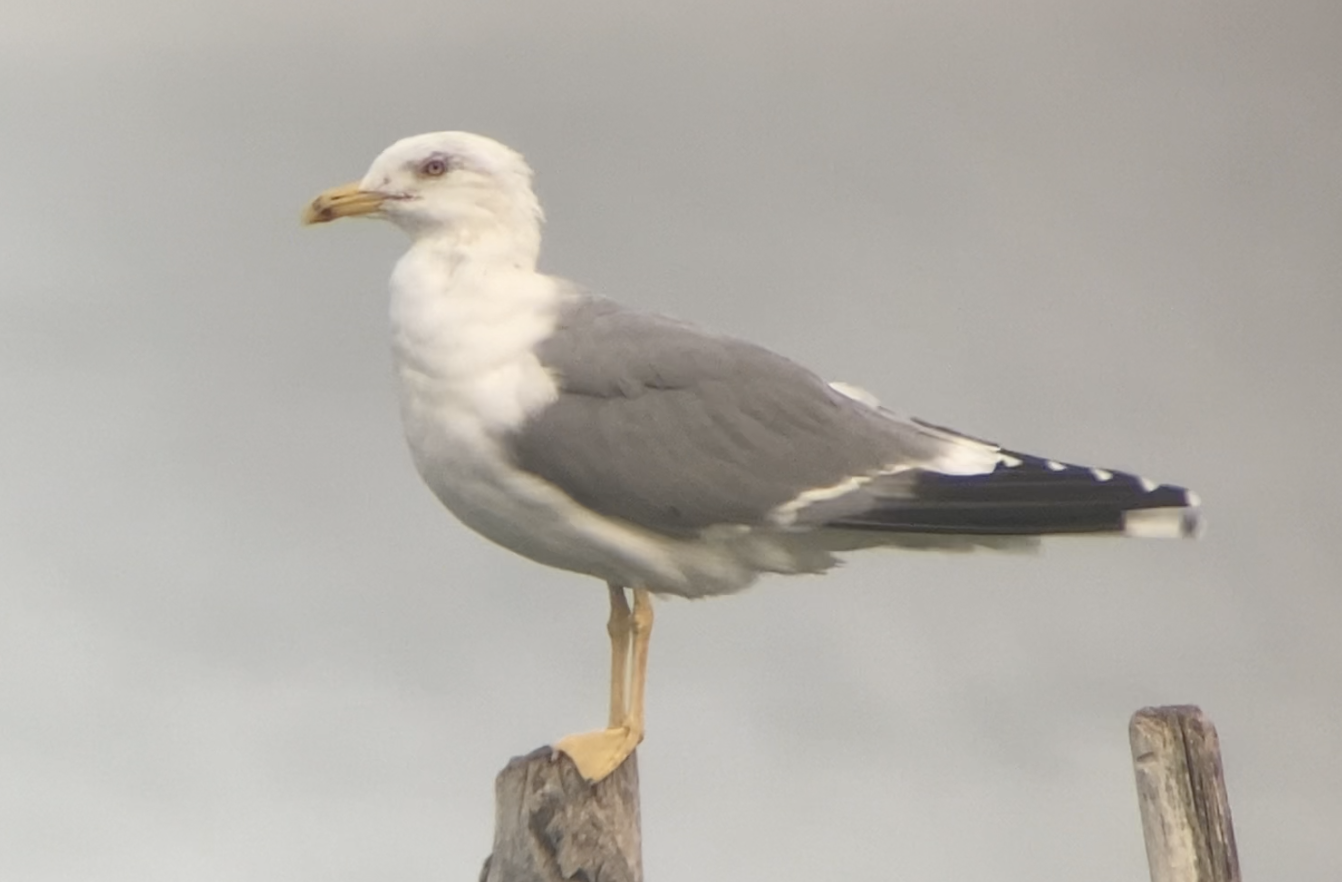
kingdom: Animalia
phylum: Chordata
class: Aves
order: Charadriiformes
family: Laridae
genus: Larus
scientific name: Larus michahellis
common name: Yellow-legged gull
